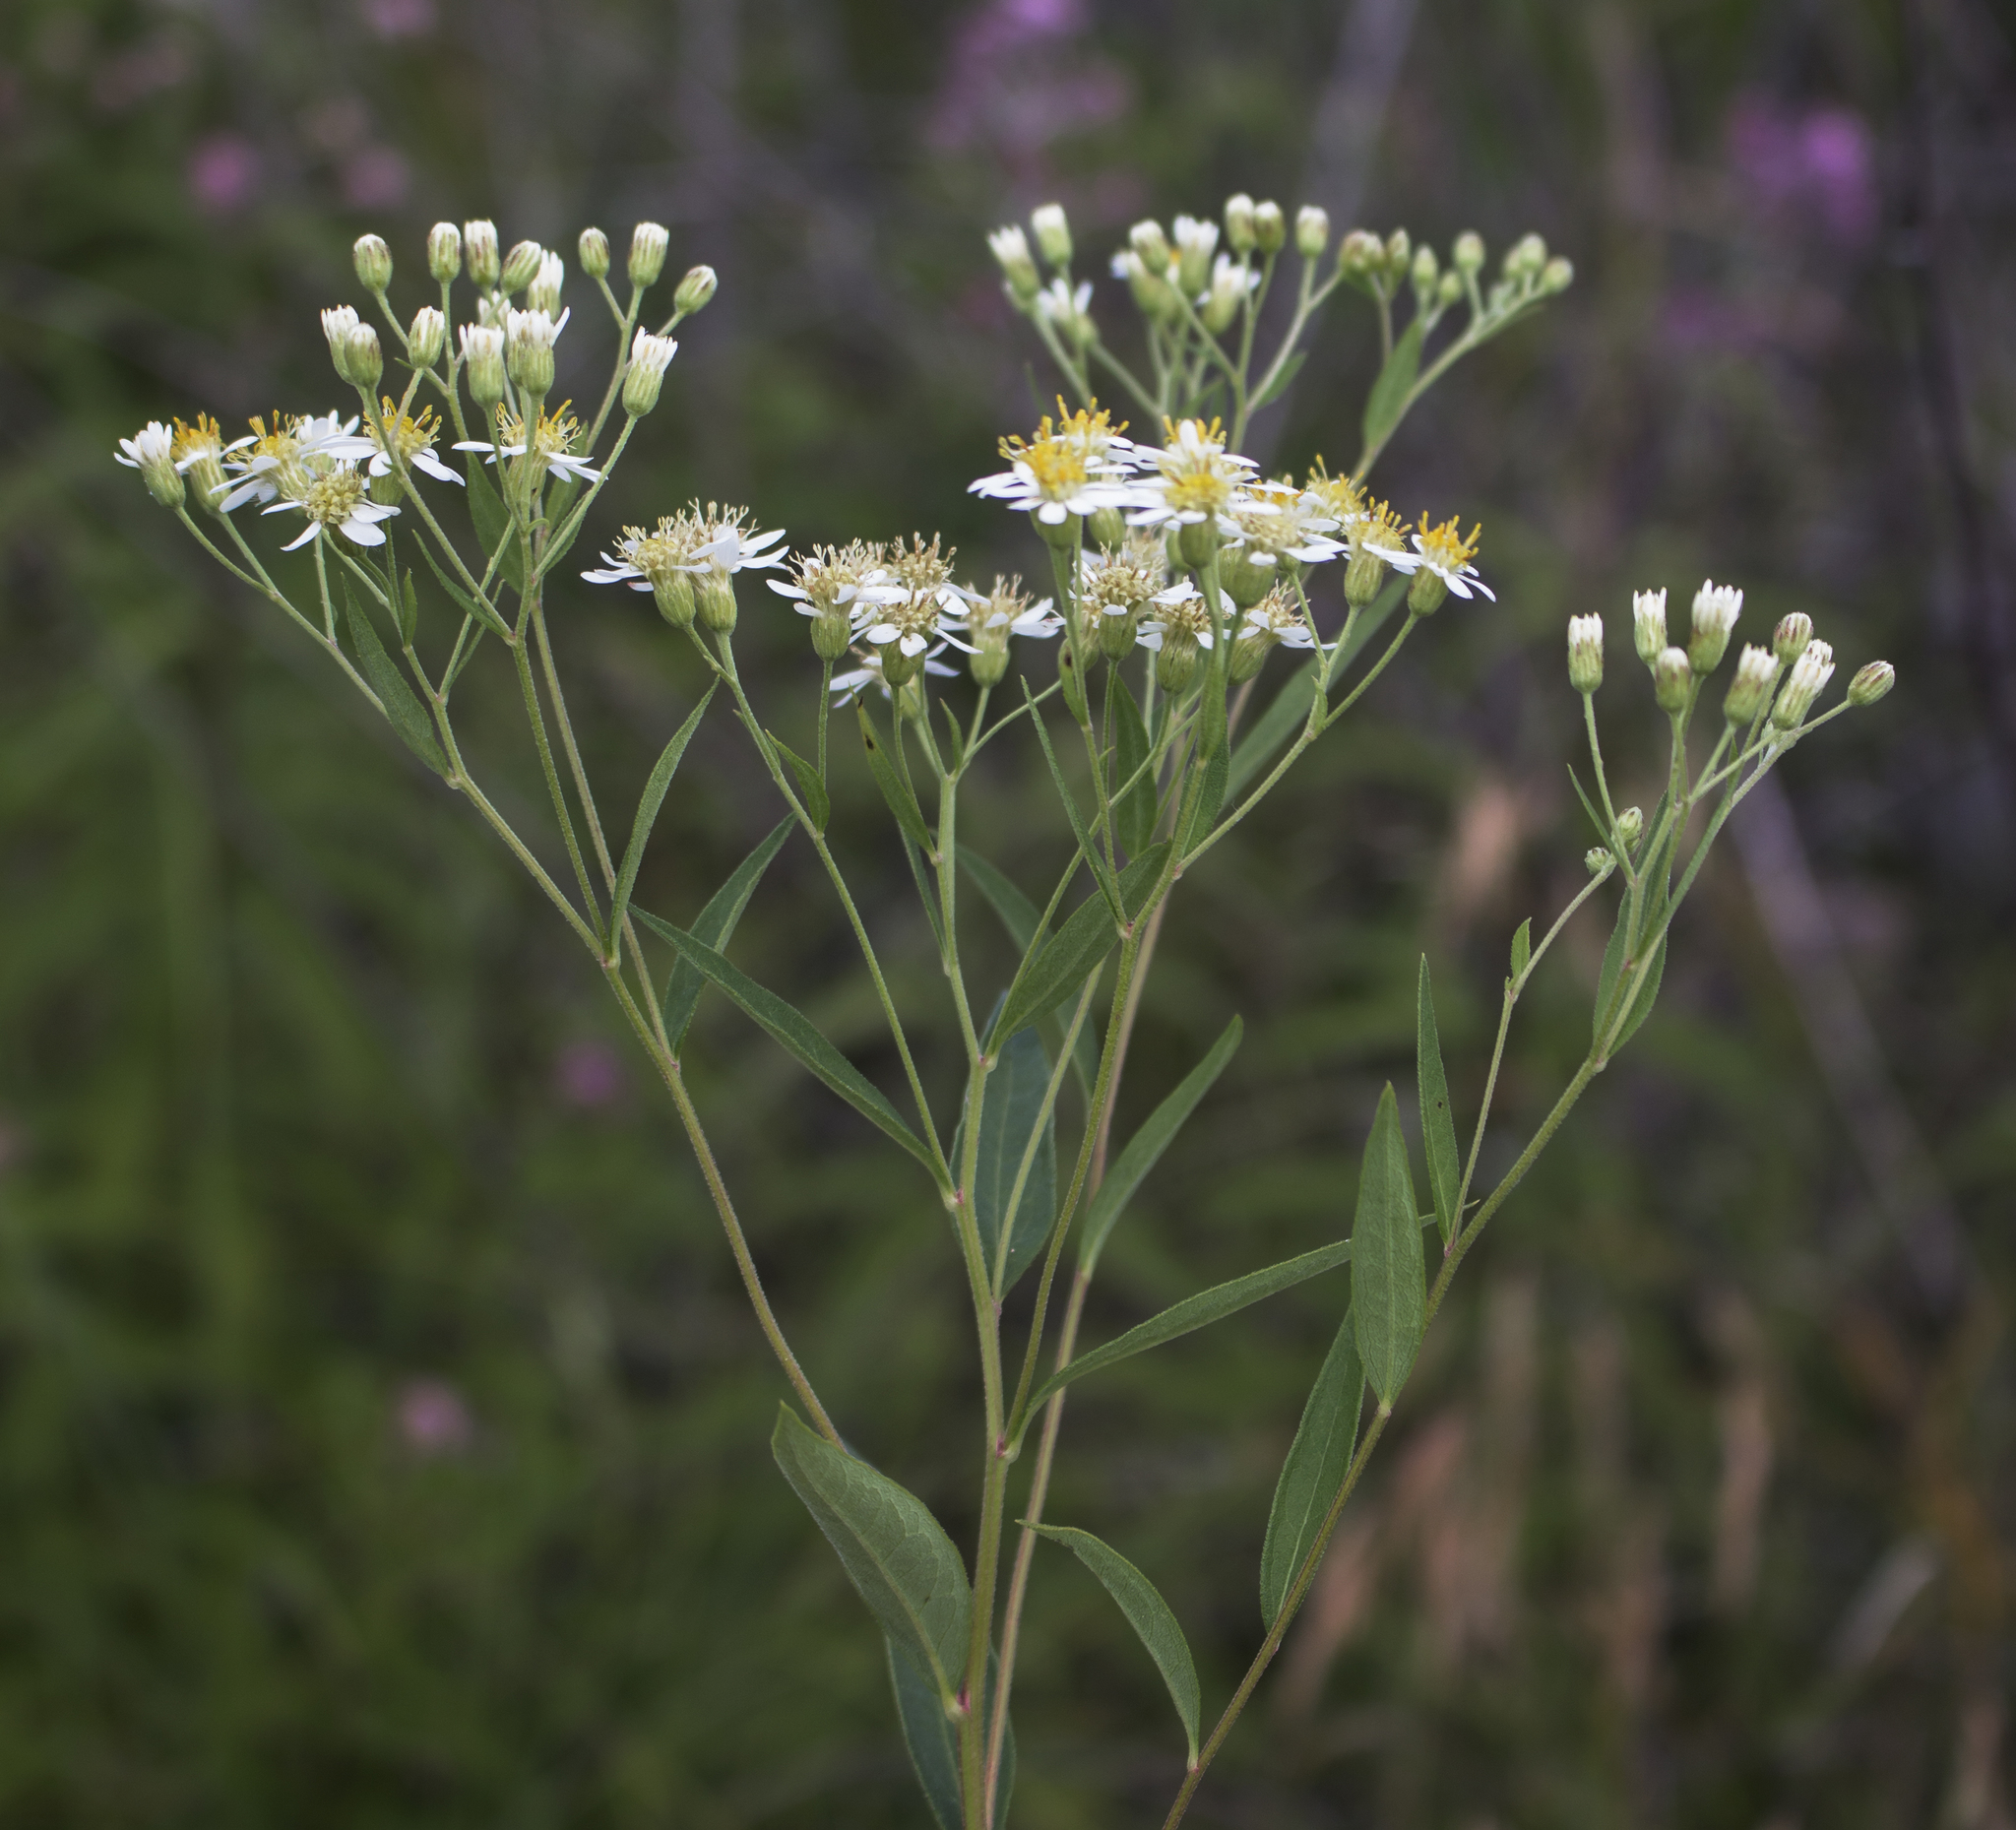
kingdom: Plantae
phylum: Tracheophyta
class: Magnoliopsida
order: Asterales
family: Asteraceae
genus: Doellingeria
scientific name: Doellingeria umbellata
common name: Flat-top white aster
